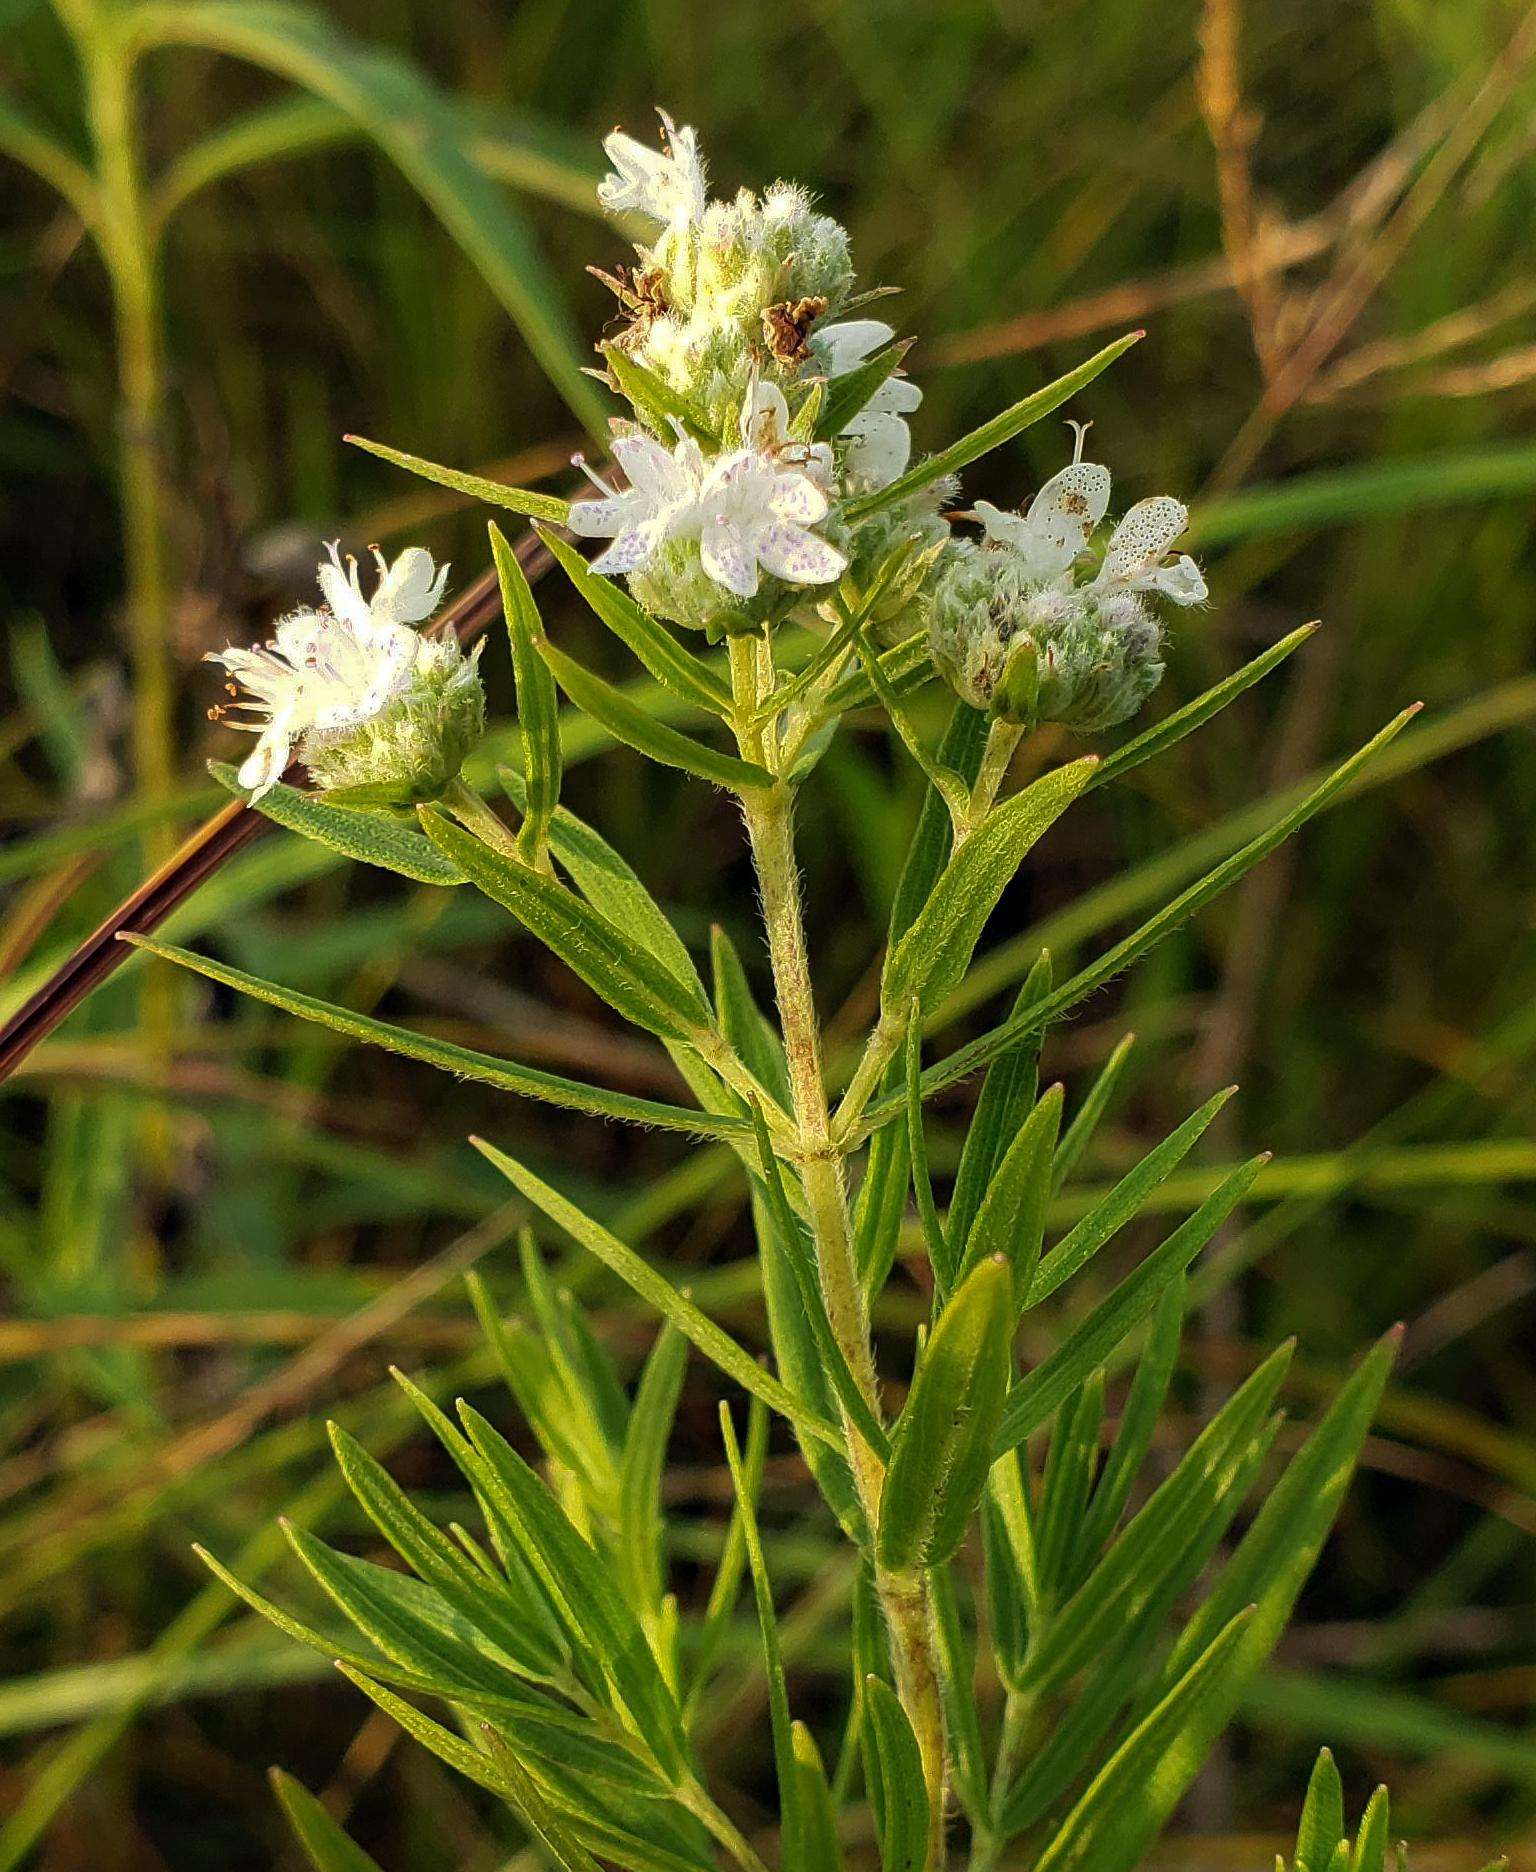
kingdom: Plantae
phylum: Tracheophyta
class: Magnoliopsida
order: Lamiales
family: Lamiaceae
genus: Pycnanthemum
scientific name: Pycnanthemum virginianum
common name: Virginia mountain-mint
